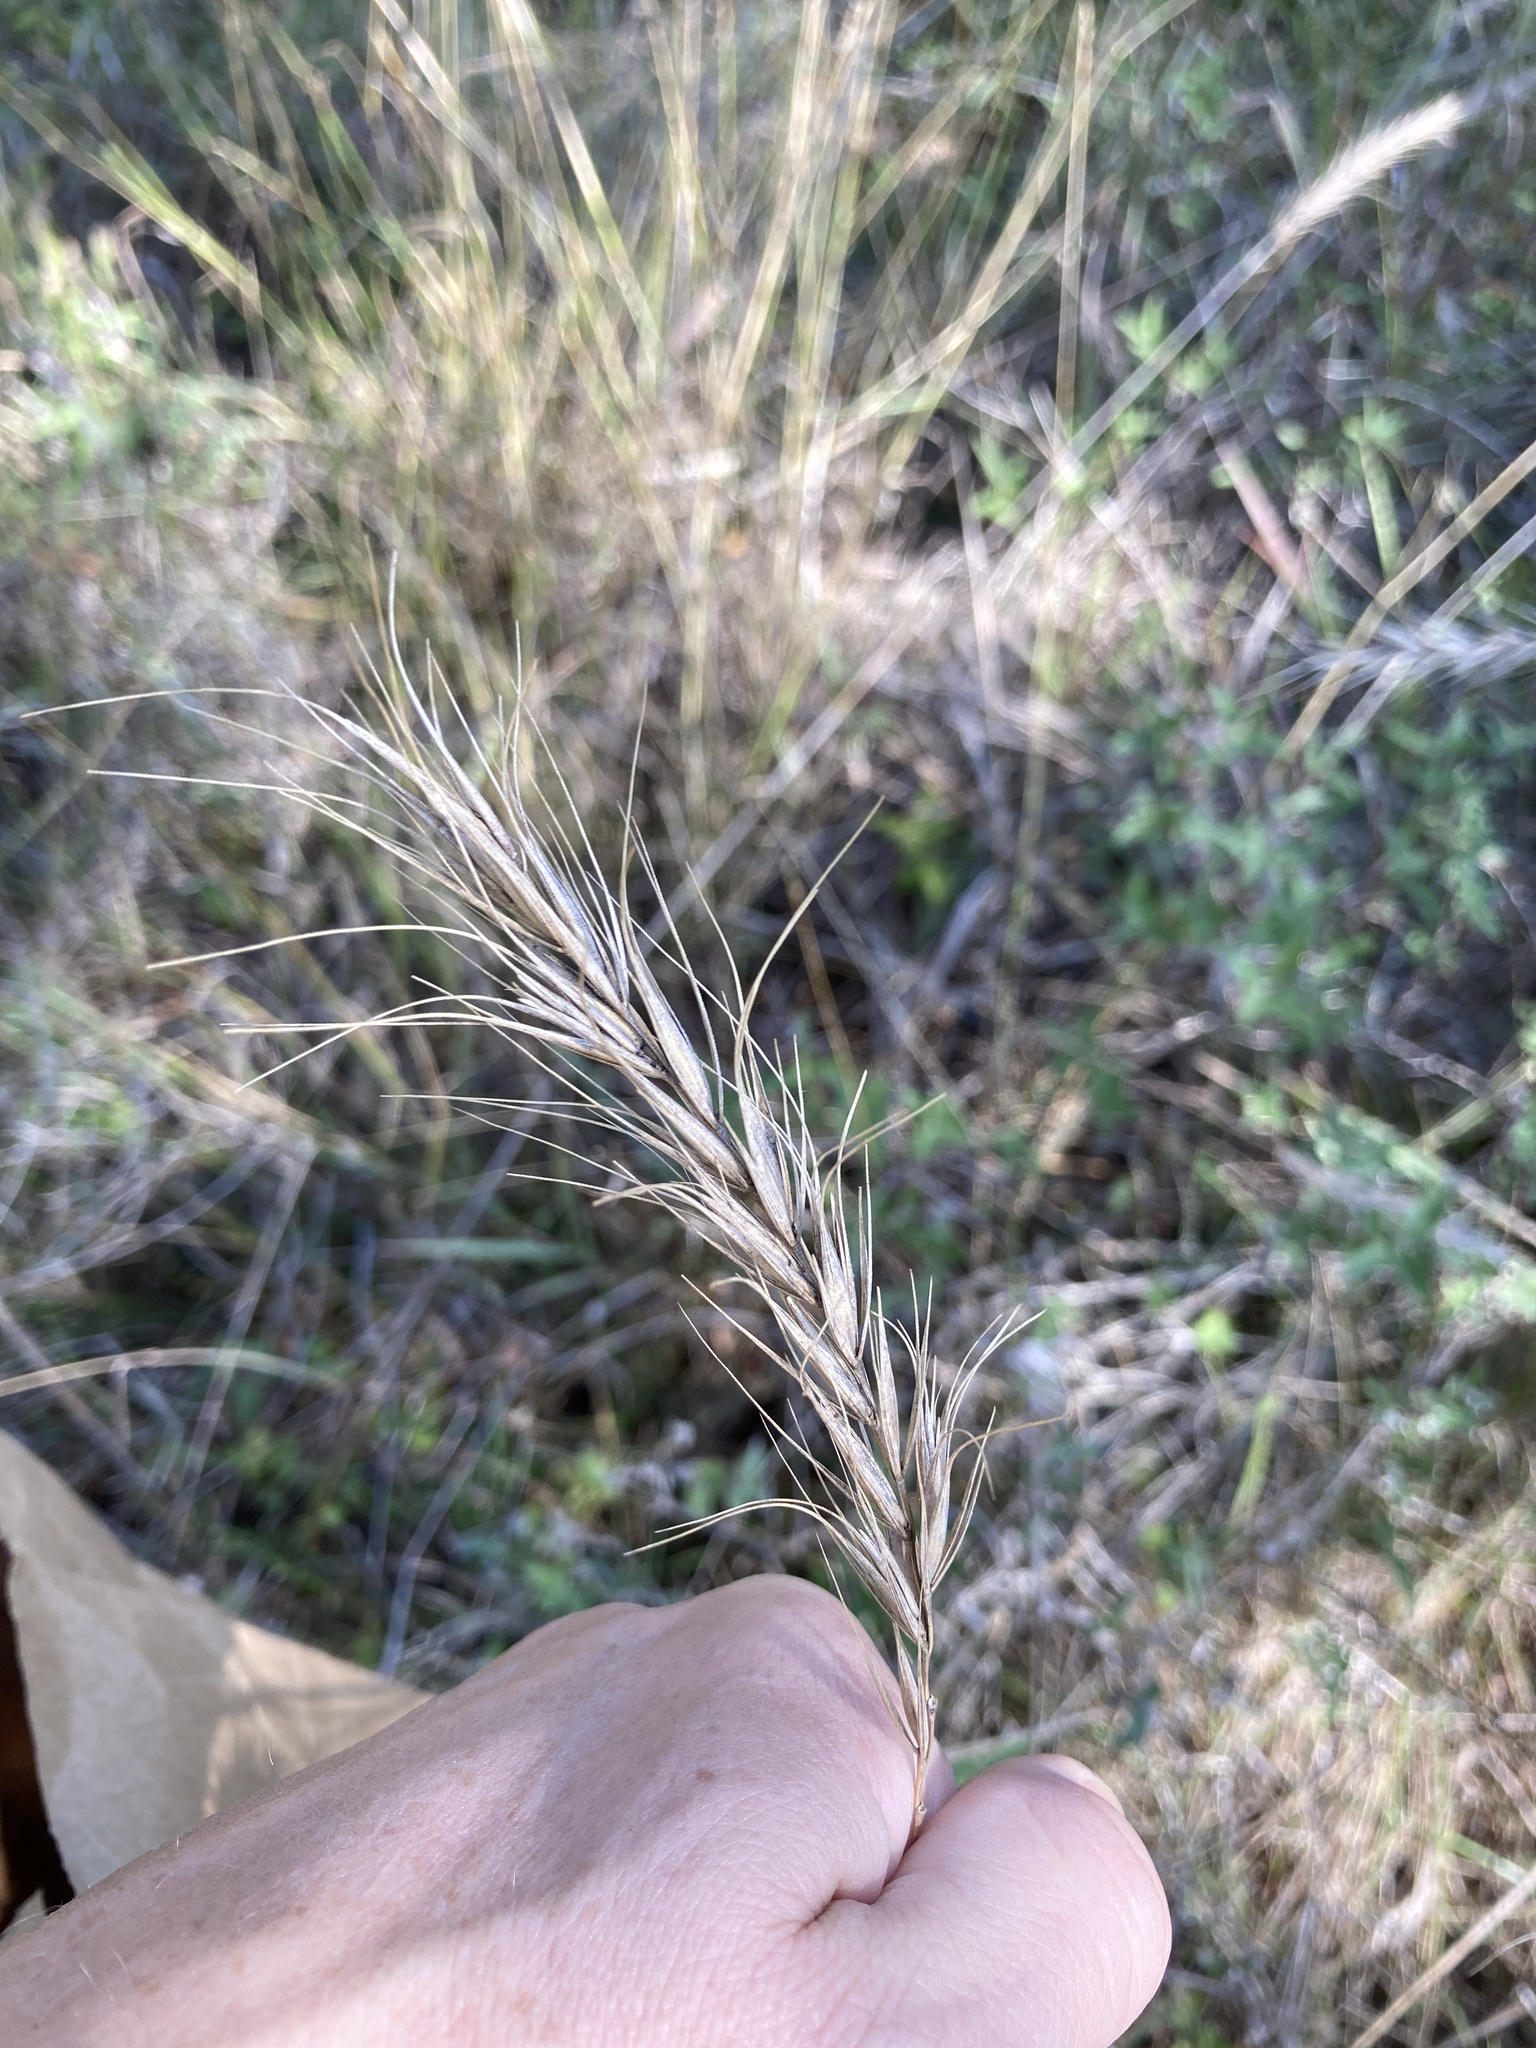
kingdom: Plantae
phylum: Tracheophyta
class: Liliopsida
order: Poales
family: Poaceae
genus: Elymus
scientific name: Elymus canadensis
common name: Canada wild rye
